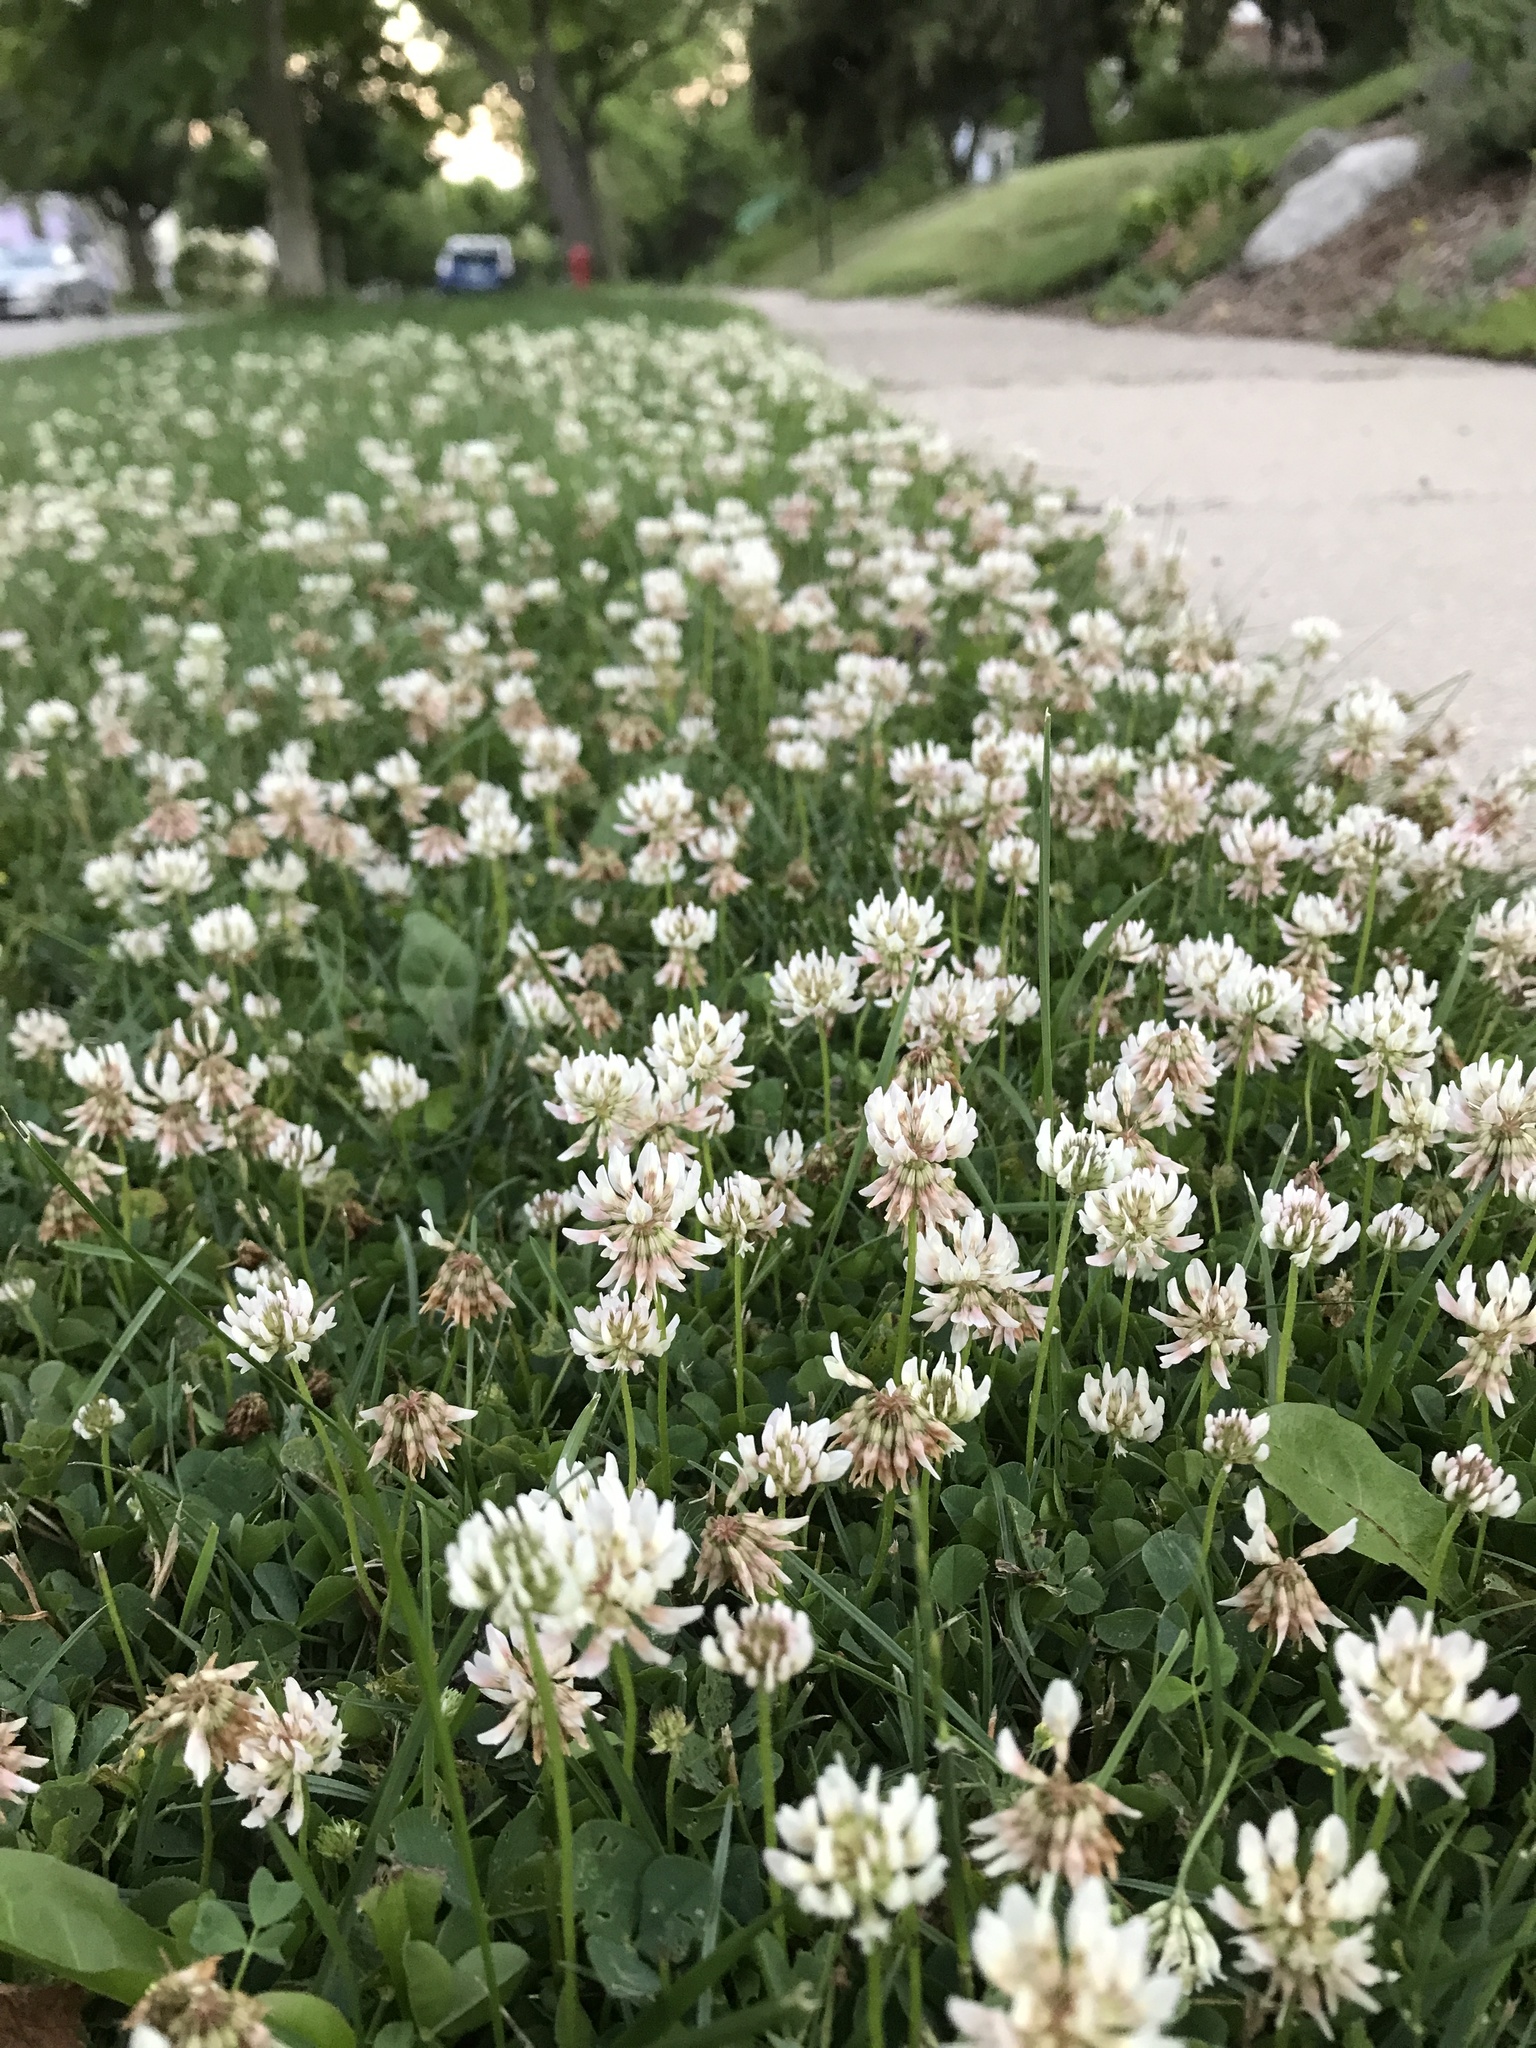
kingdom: Plantae
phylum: Tracheophyta
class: Magnoliopsida
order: Fabales
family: Fabaceae
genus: Trifolium
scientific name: Trifolium repens
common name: White clover
